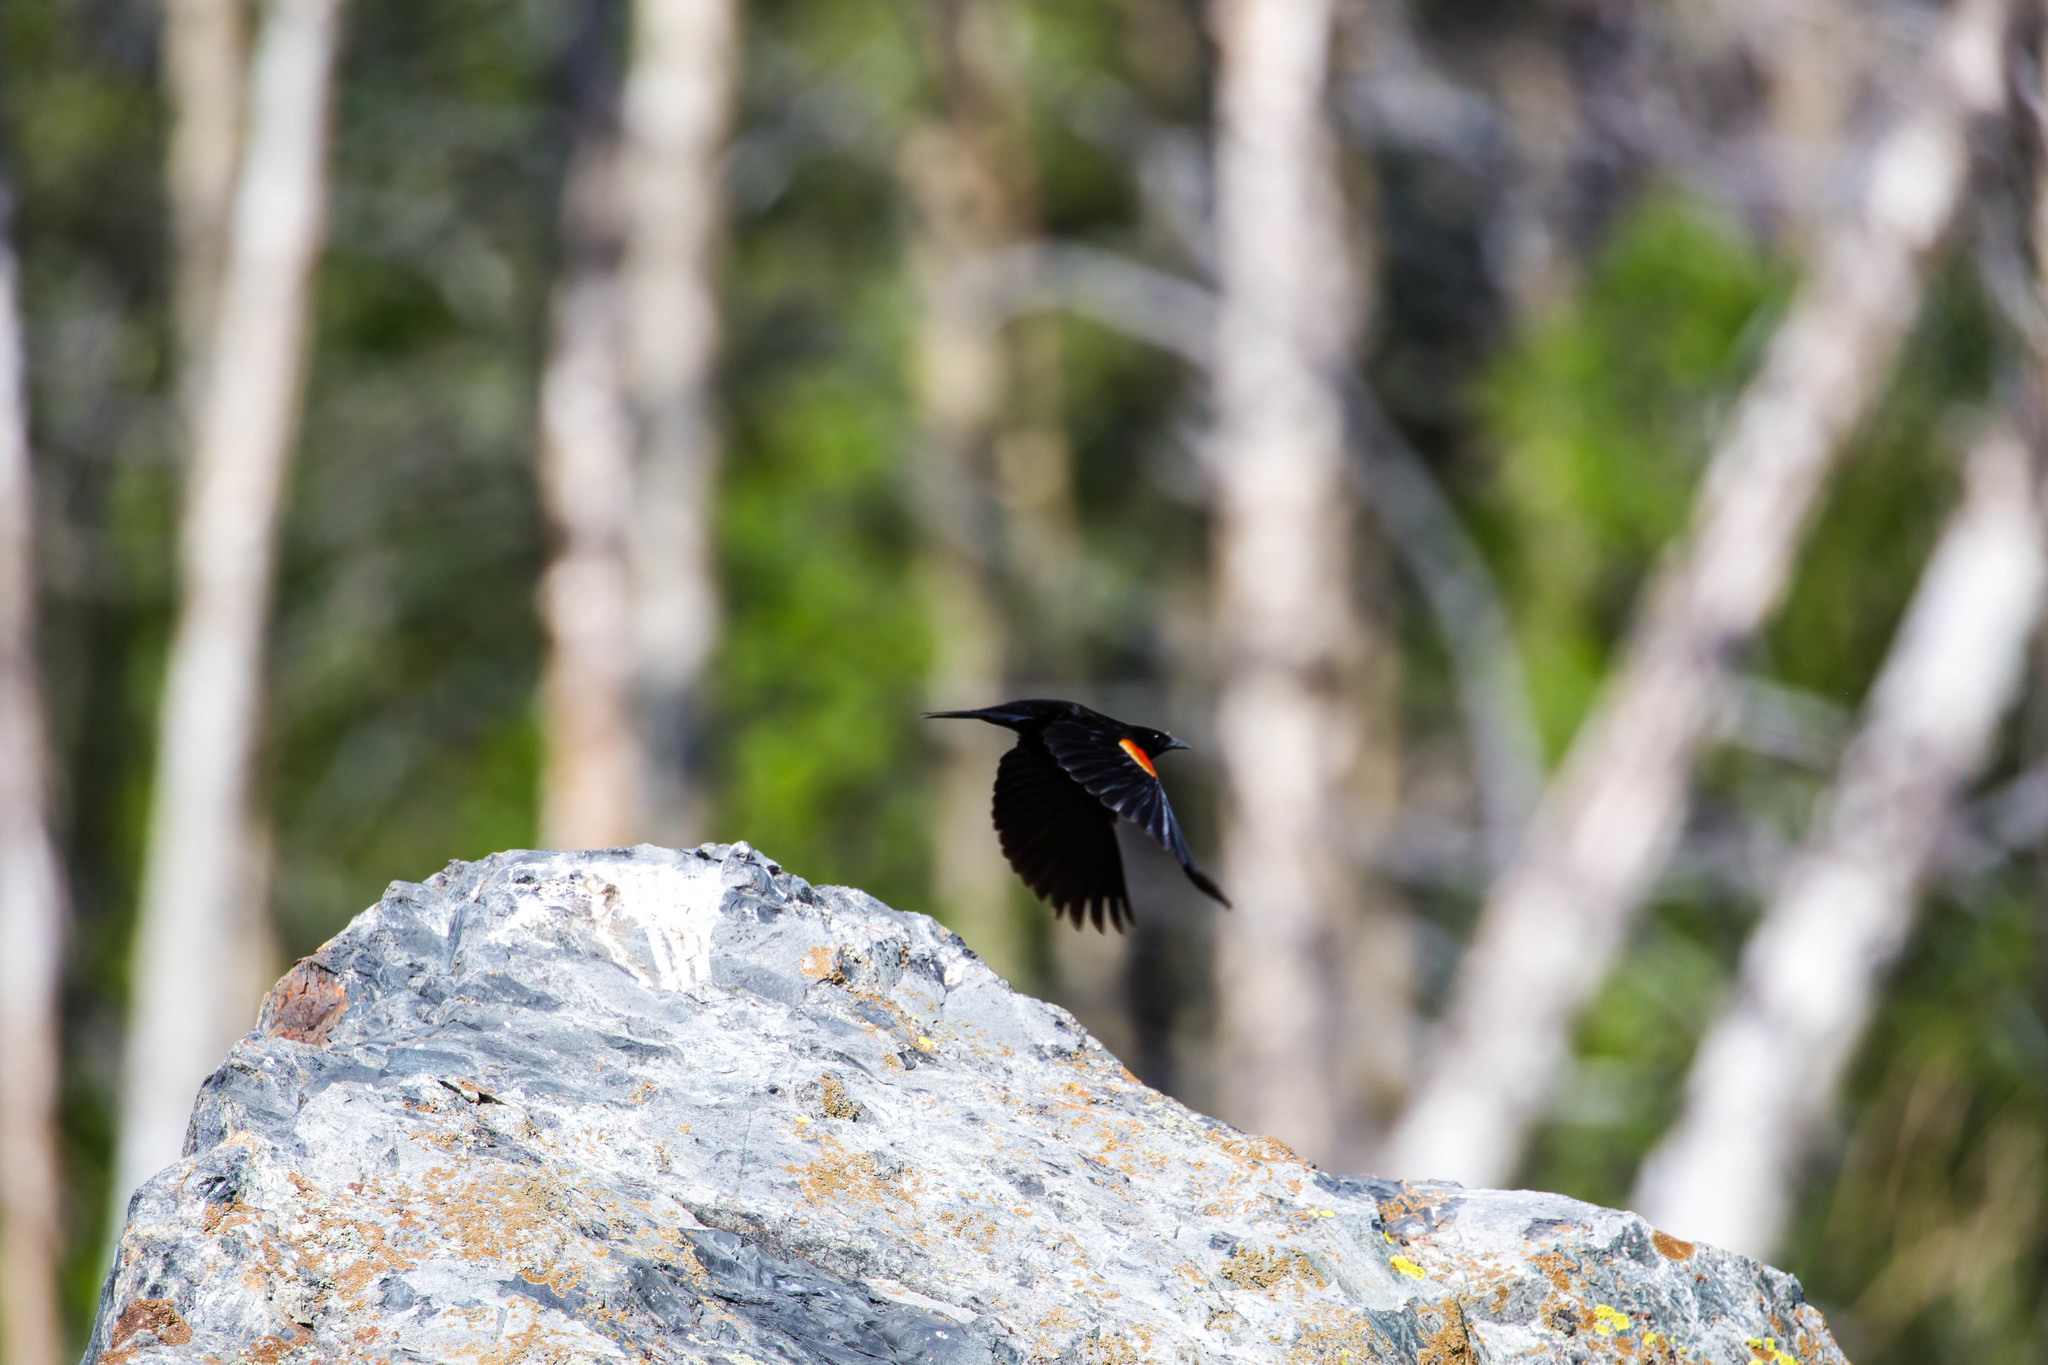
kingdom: Animalia
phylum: Chordata
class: Aves
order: Passeriformes
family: Icteridae
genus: Agelaius
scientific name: Agelaius phoeniceus
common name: Red-winged blackbird
